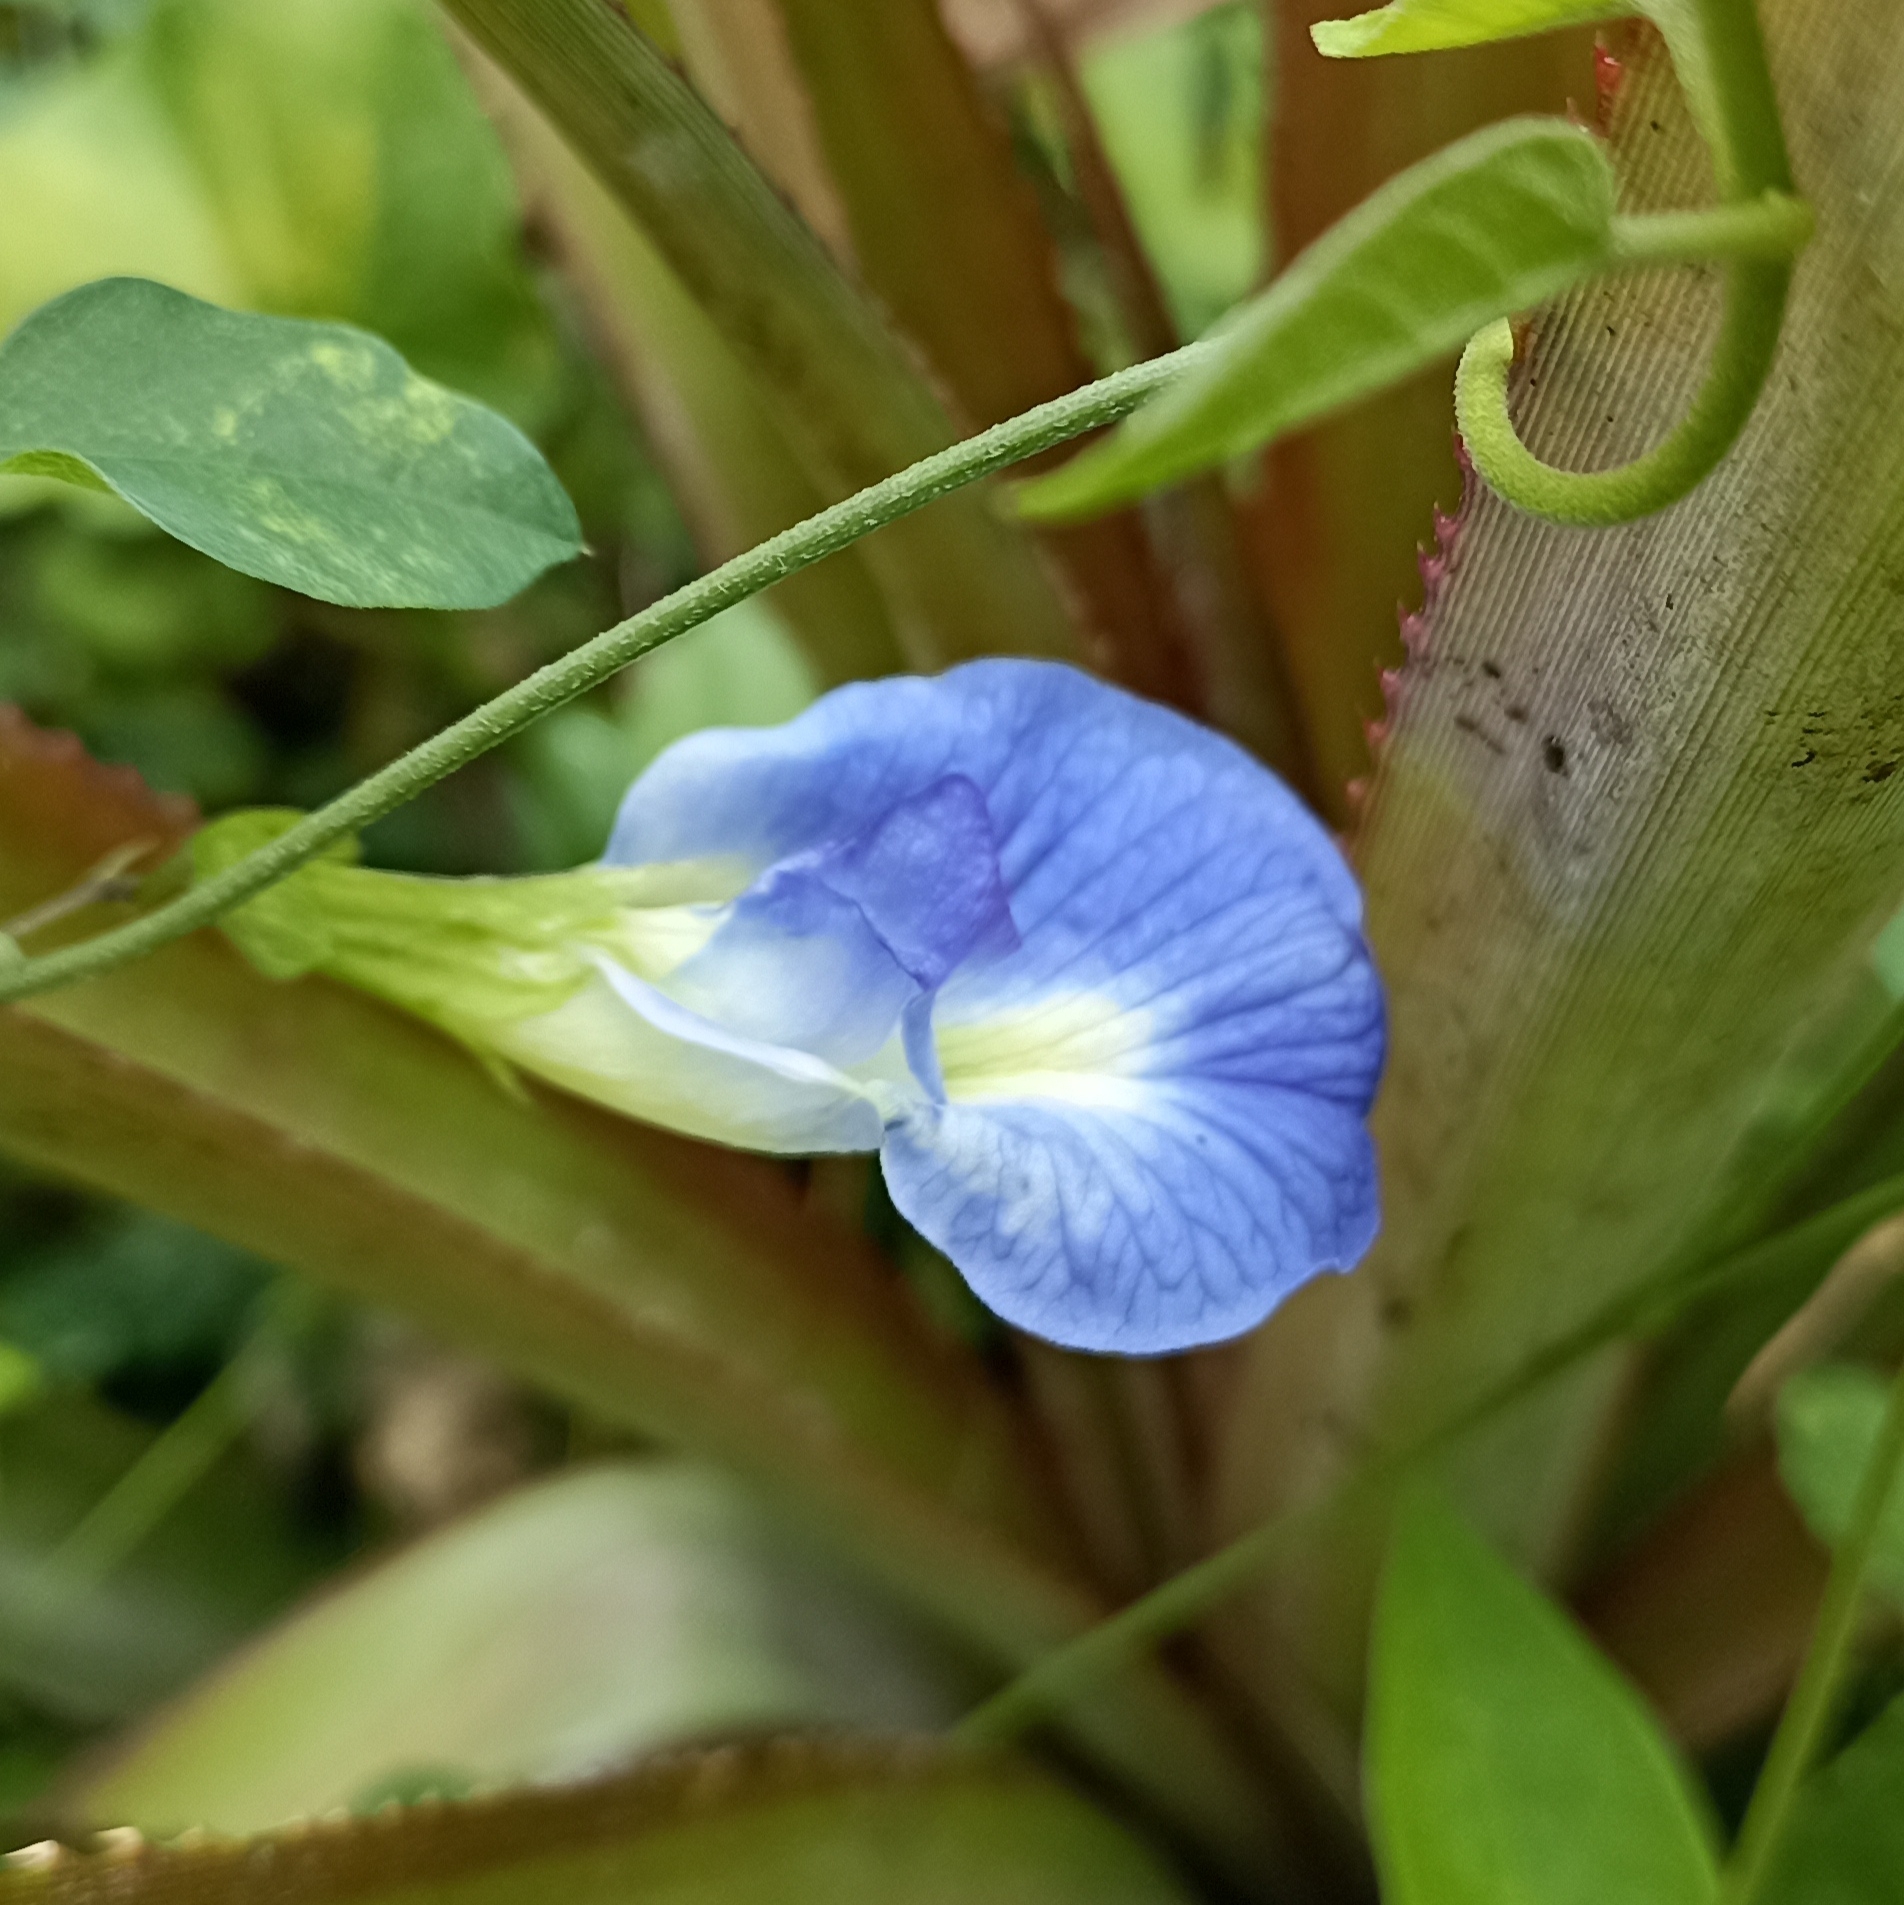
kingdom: Plantae
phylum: Tracheophyta
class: Magnoliopsida
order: Fabales
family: Fabaceae
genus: Clitoria
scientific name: Clitoria ternatea
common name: Asian pigeonwings
